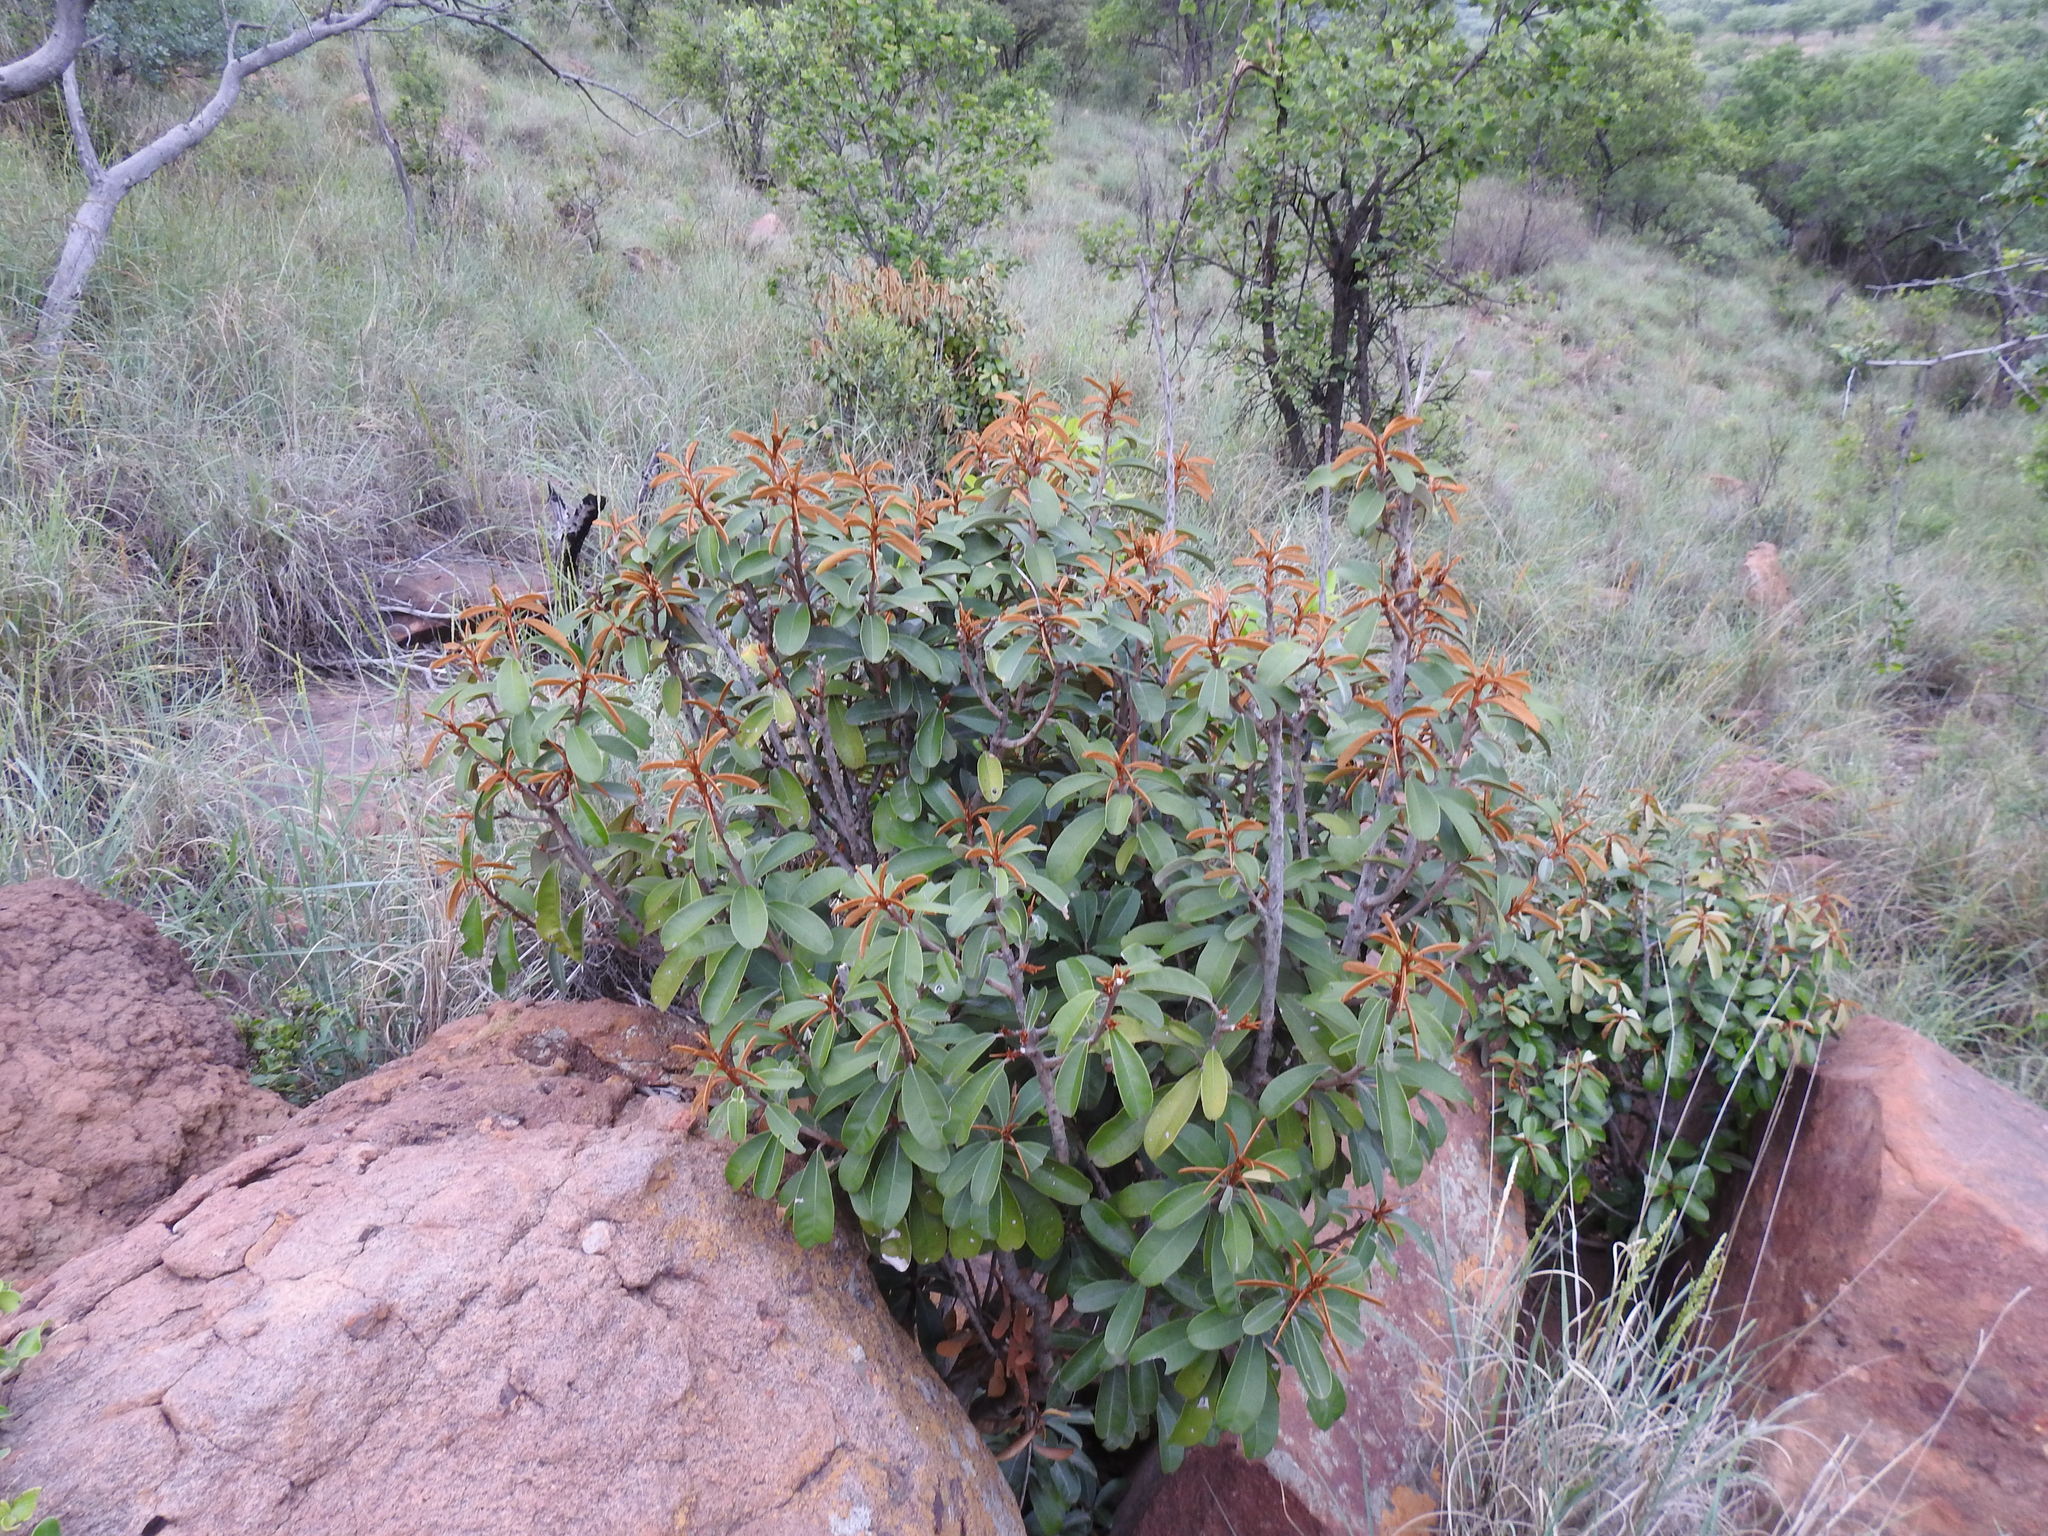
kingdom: Plantae
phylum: Tracheophyta
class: Magnoliopsida
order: Ericales
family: Sapotaceae
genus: Englerophytum
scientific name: Englerophytum magalismontanum
